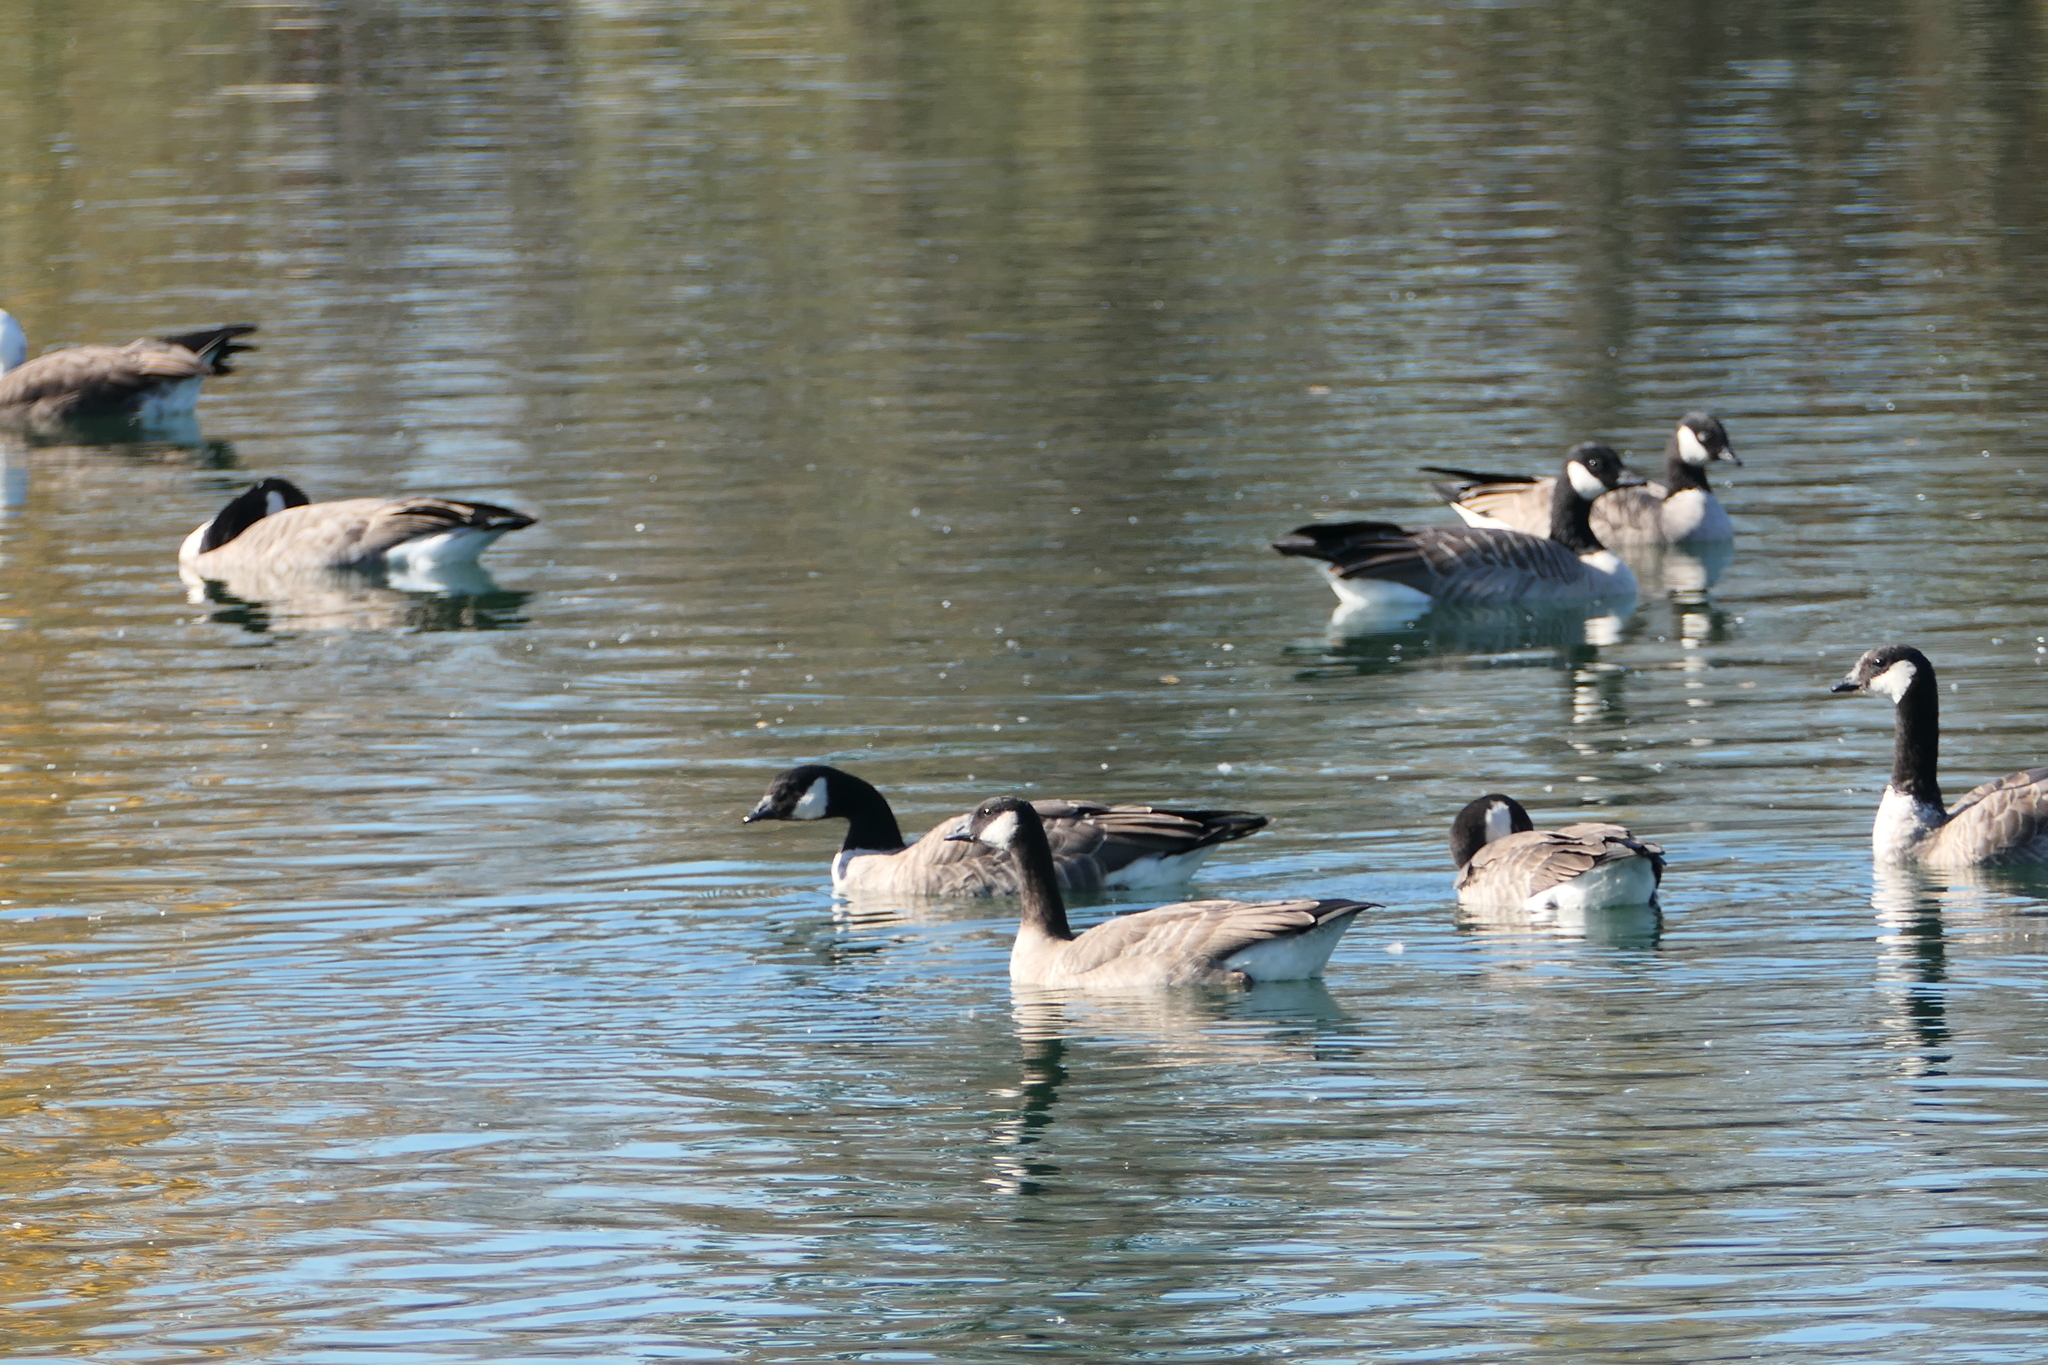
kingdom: Animalia
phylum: Chordata
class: Aves
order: Anseriformes
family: Anatidae
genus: Branta
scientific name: Branta hutchinsii
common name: Cackling goose
